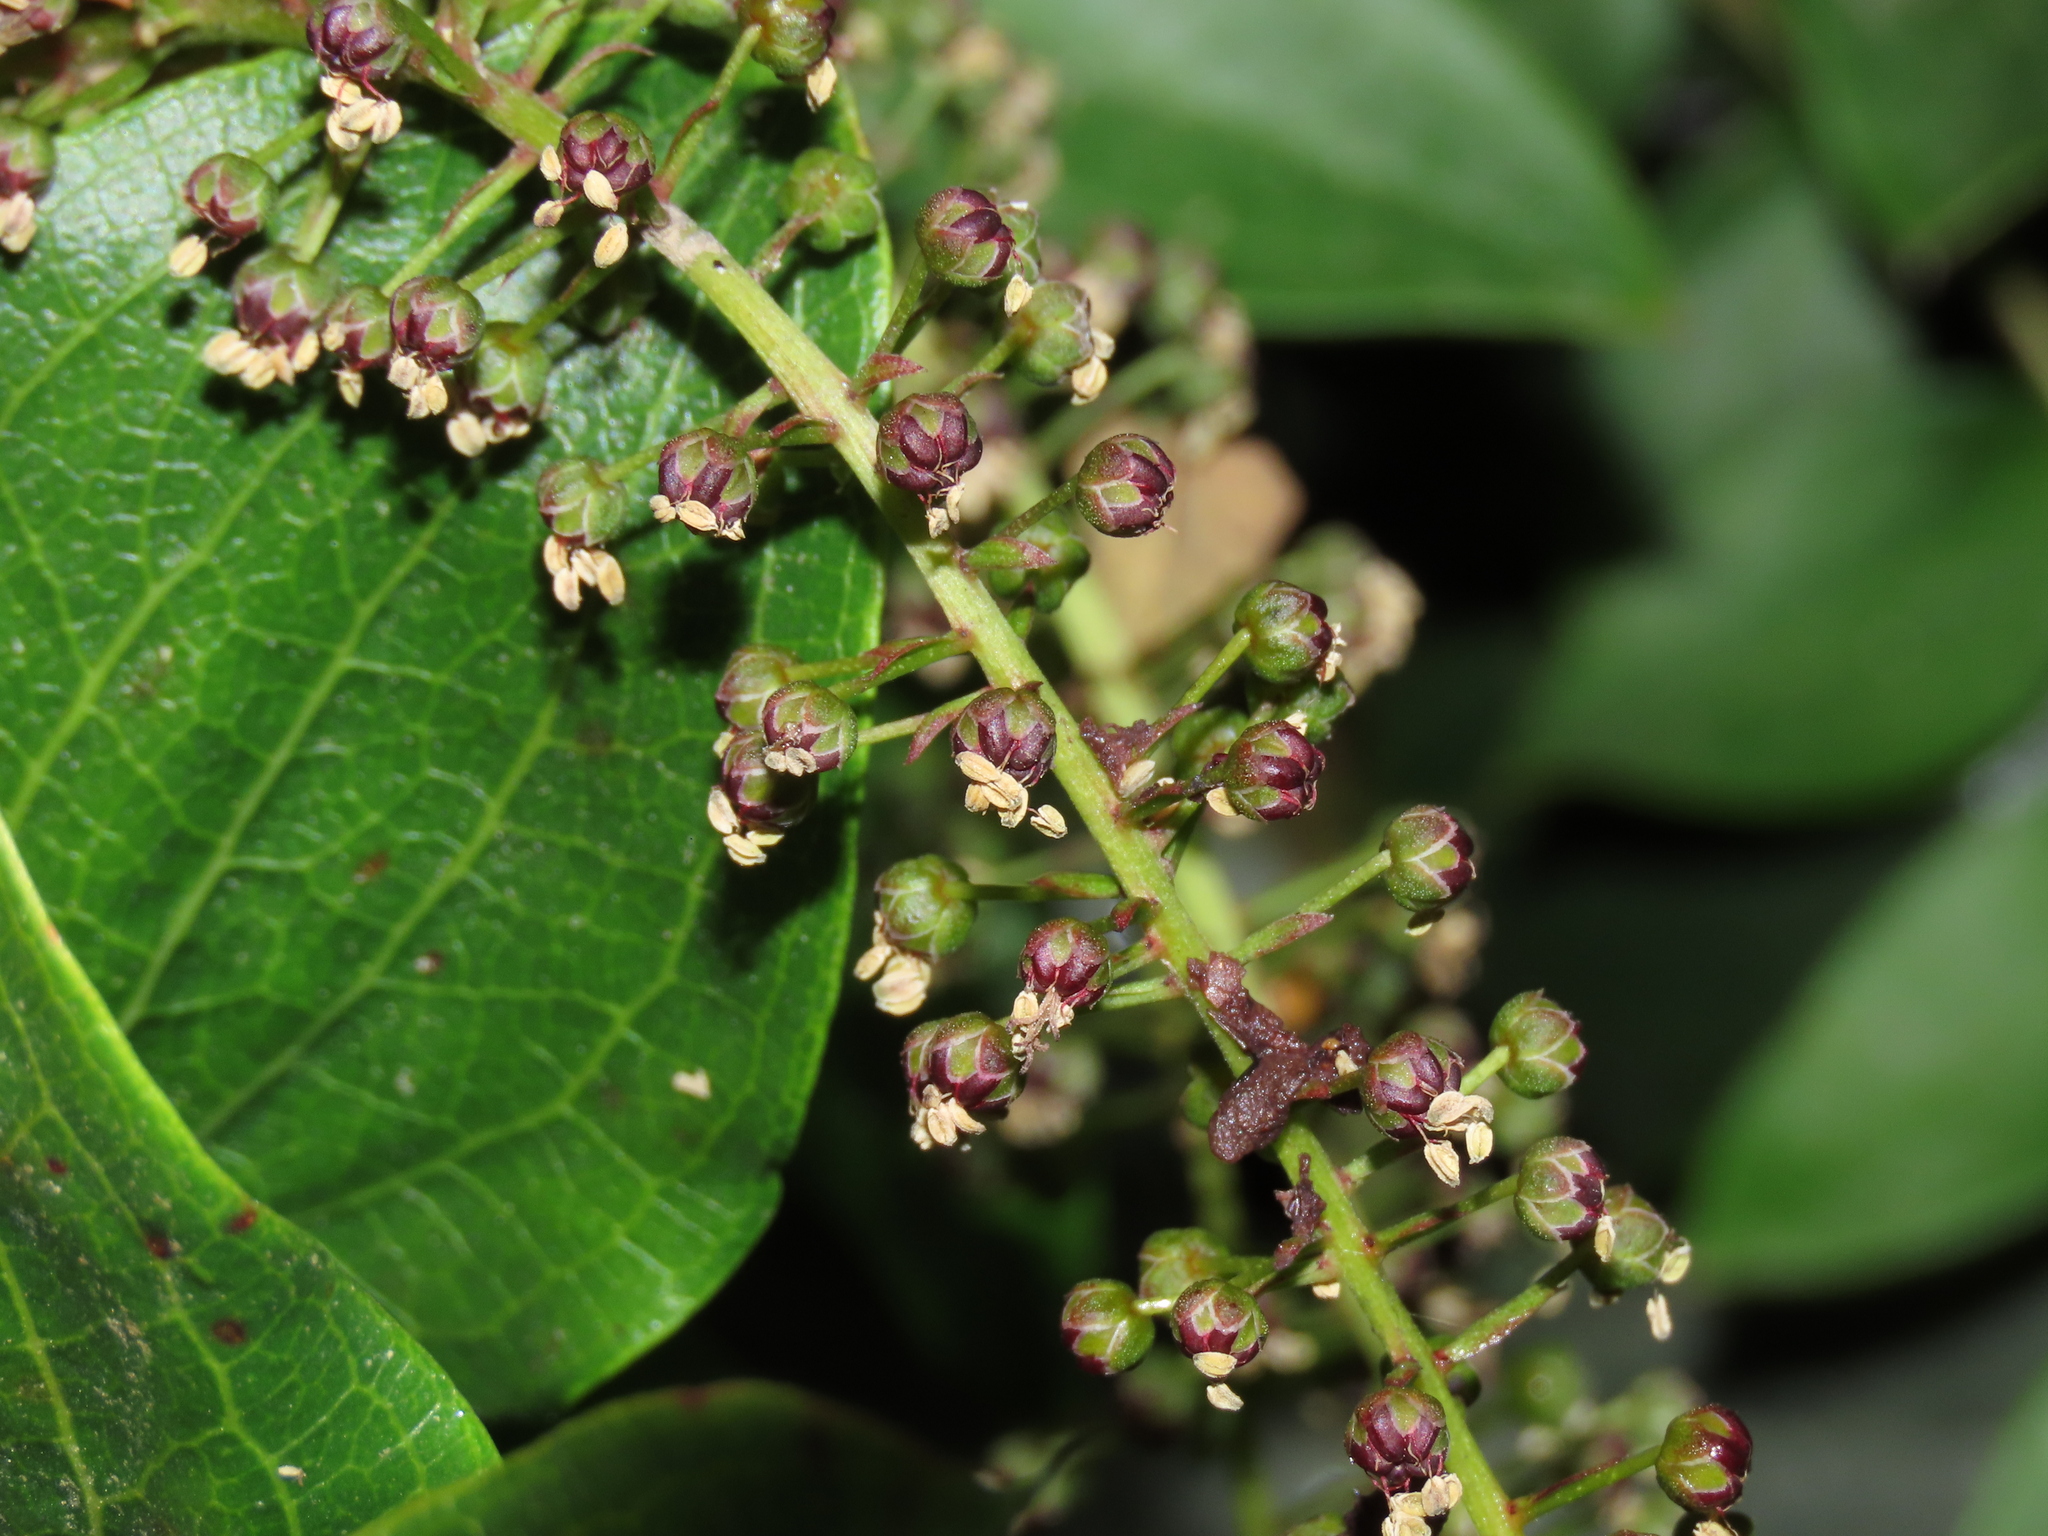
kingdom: Plantae
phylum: Tracheophyta
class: Magnoliopsida
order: Cucurbitales
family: Coriariaceae
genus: Coriaria
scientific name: Coriaria ruscifolia
